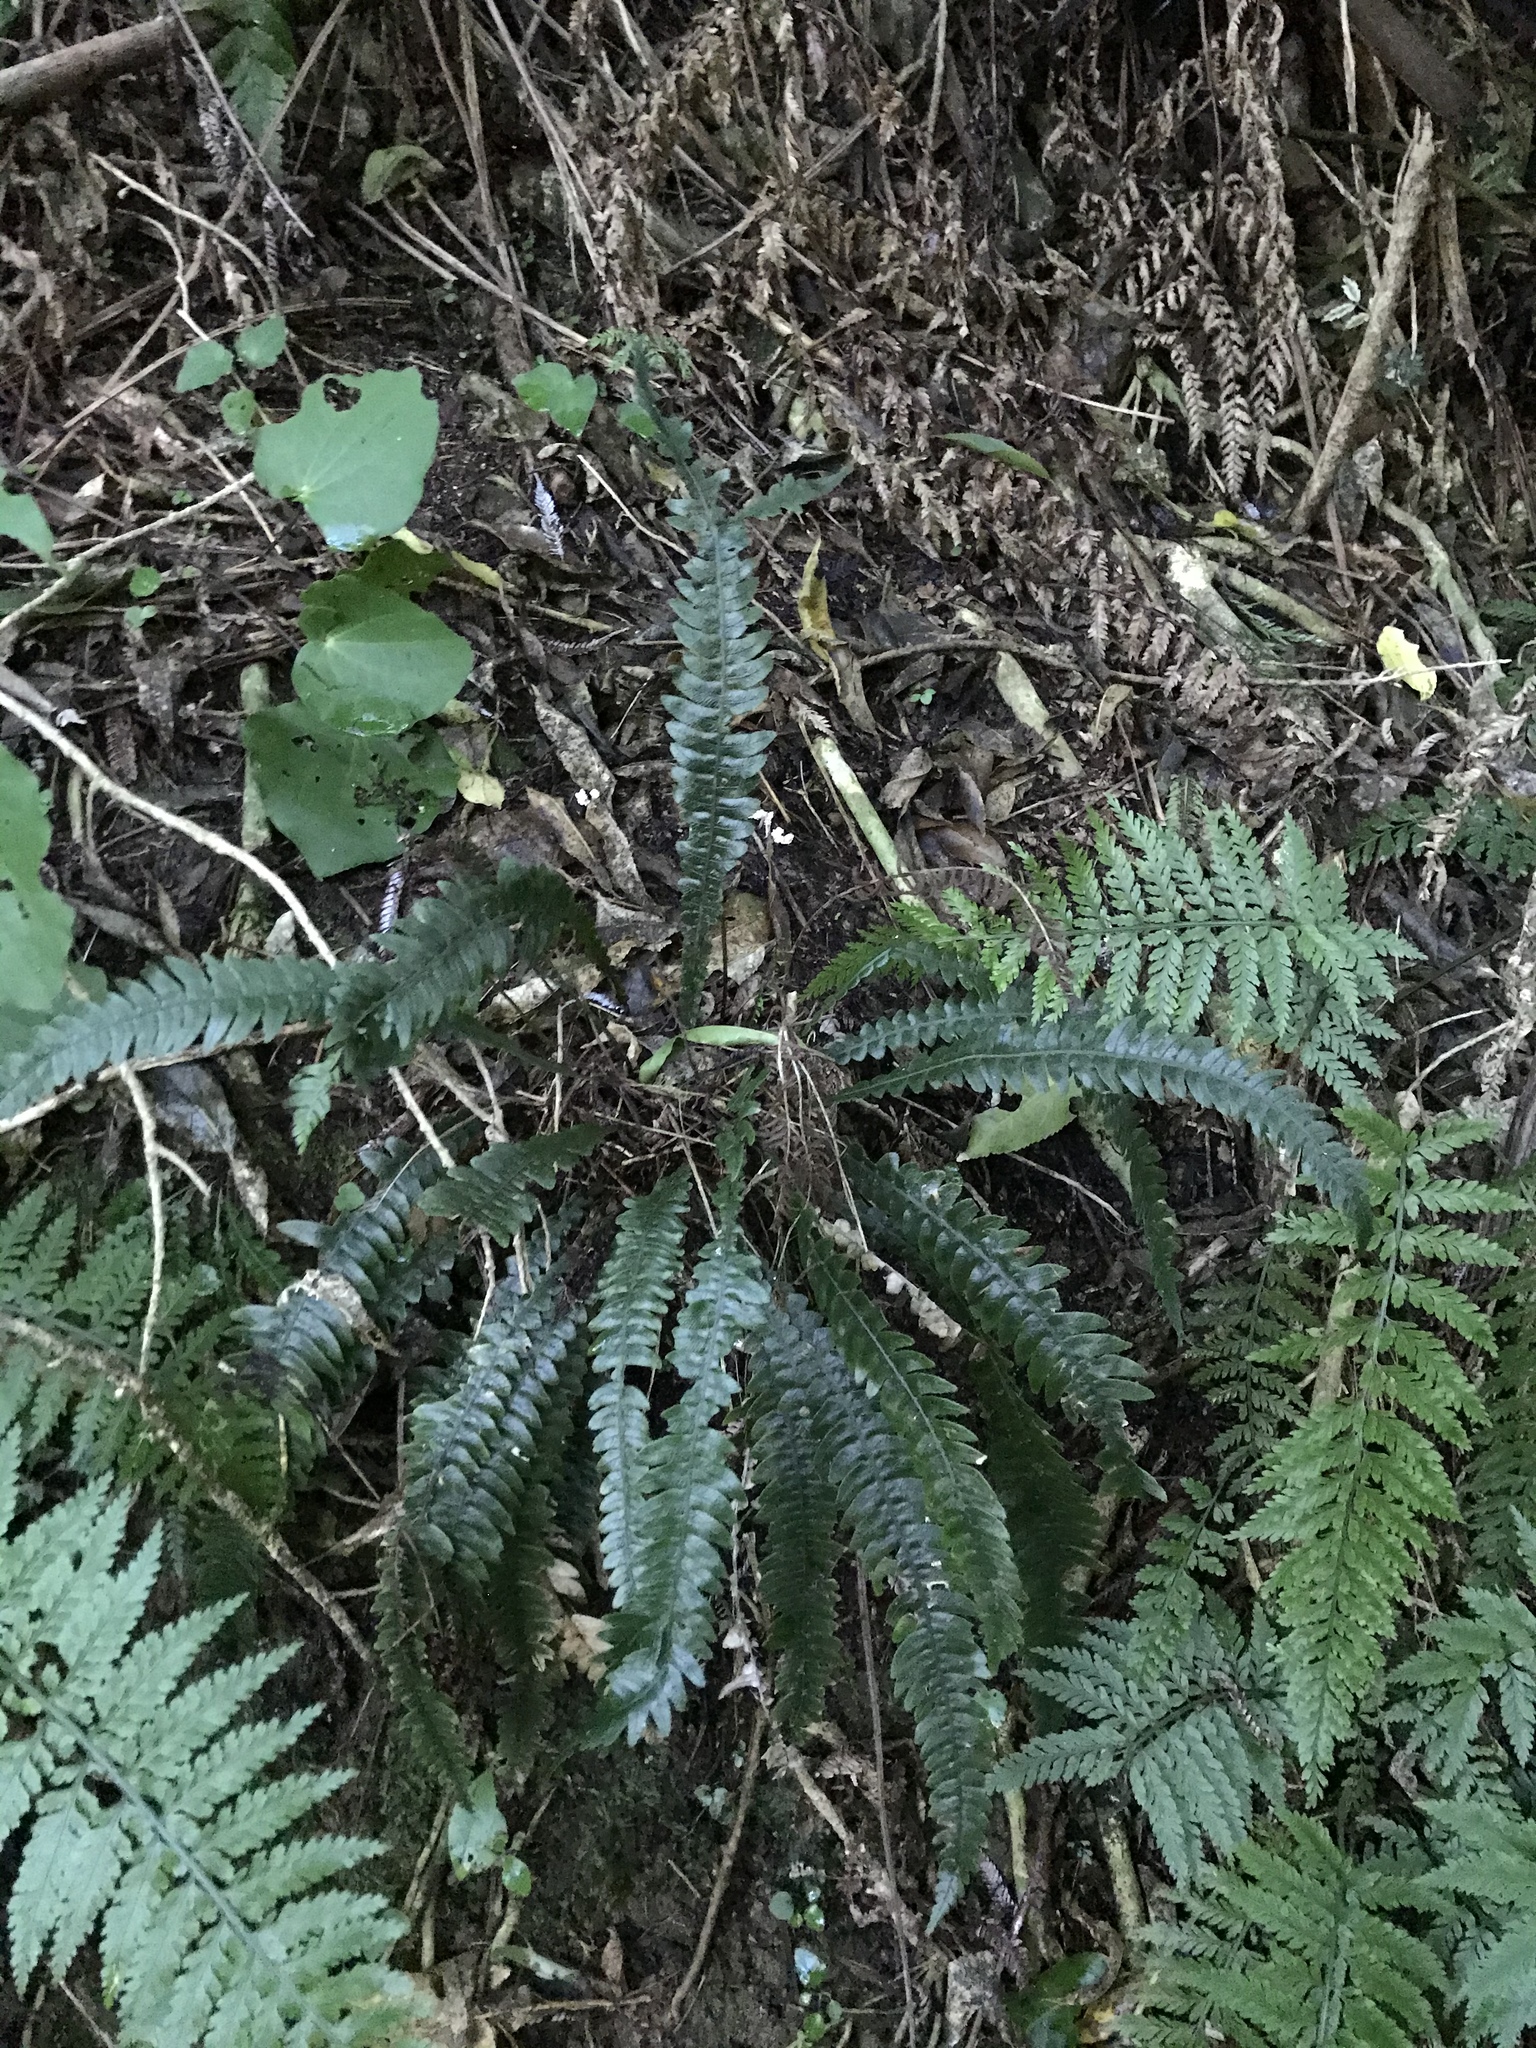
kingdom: Plantae
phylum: Tracheophyta
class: Polypodiopsida
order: Polypodiales
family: Blechnaceae
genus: Austroblechnum
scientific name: Austroblechnum lanceolatum
